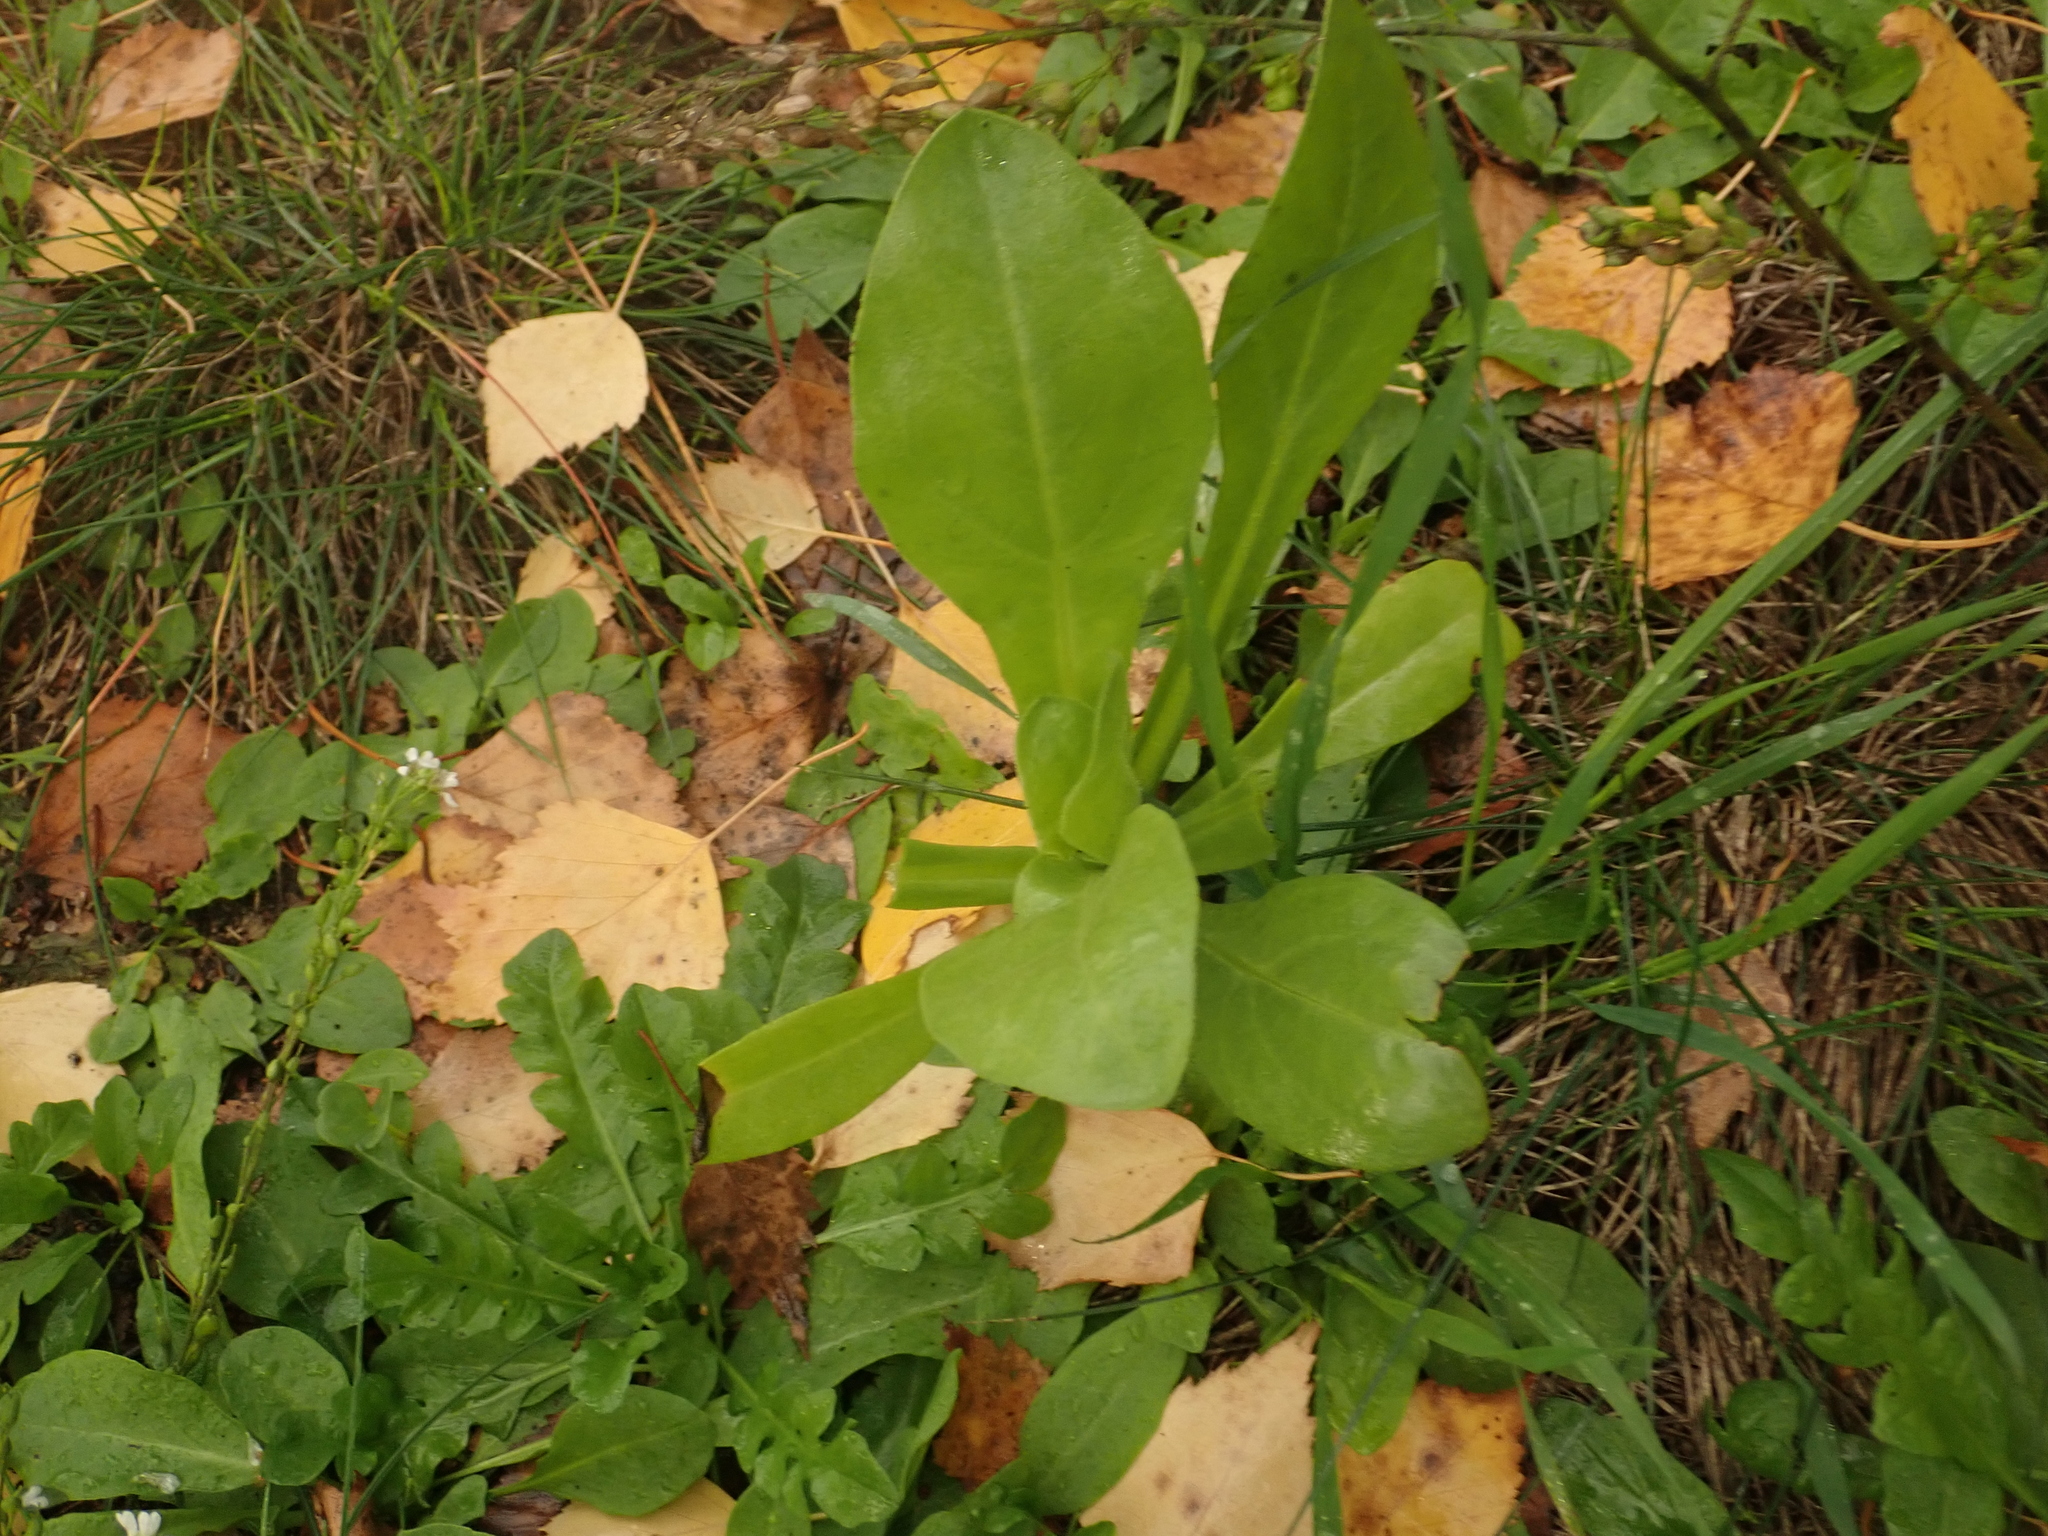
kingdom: Plantae
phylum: Tracheophyta
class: Magnoliopsida
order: Asterales
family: Asteraceae
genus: Calendula
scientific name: Calendula officinalis
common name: Pot marigold
